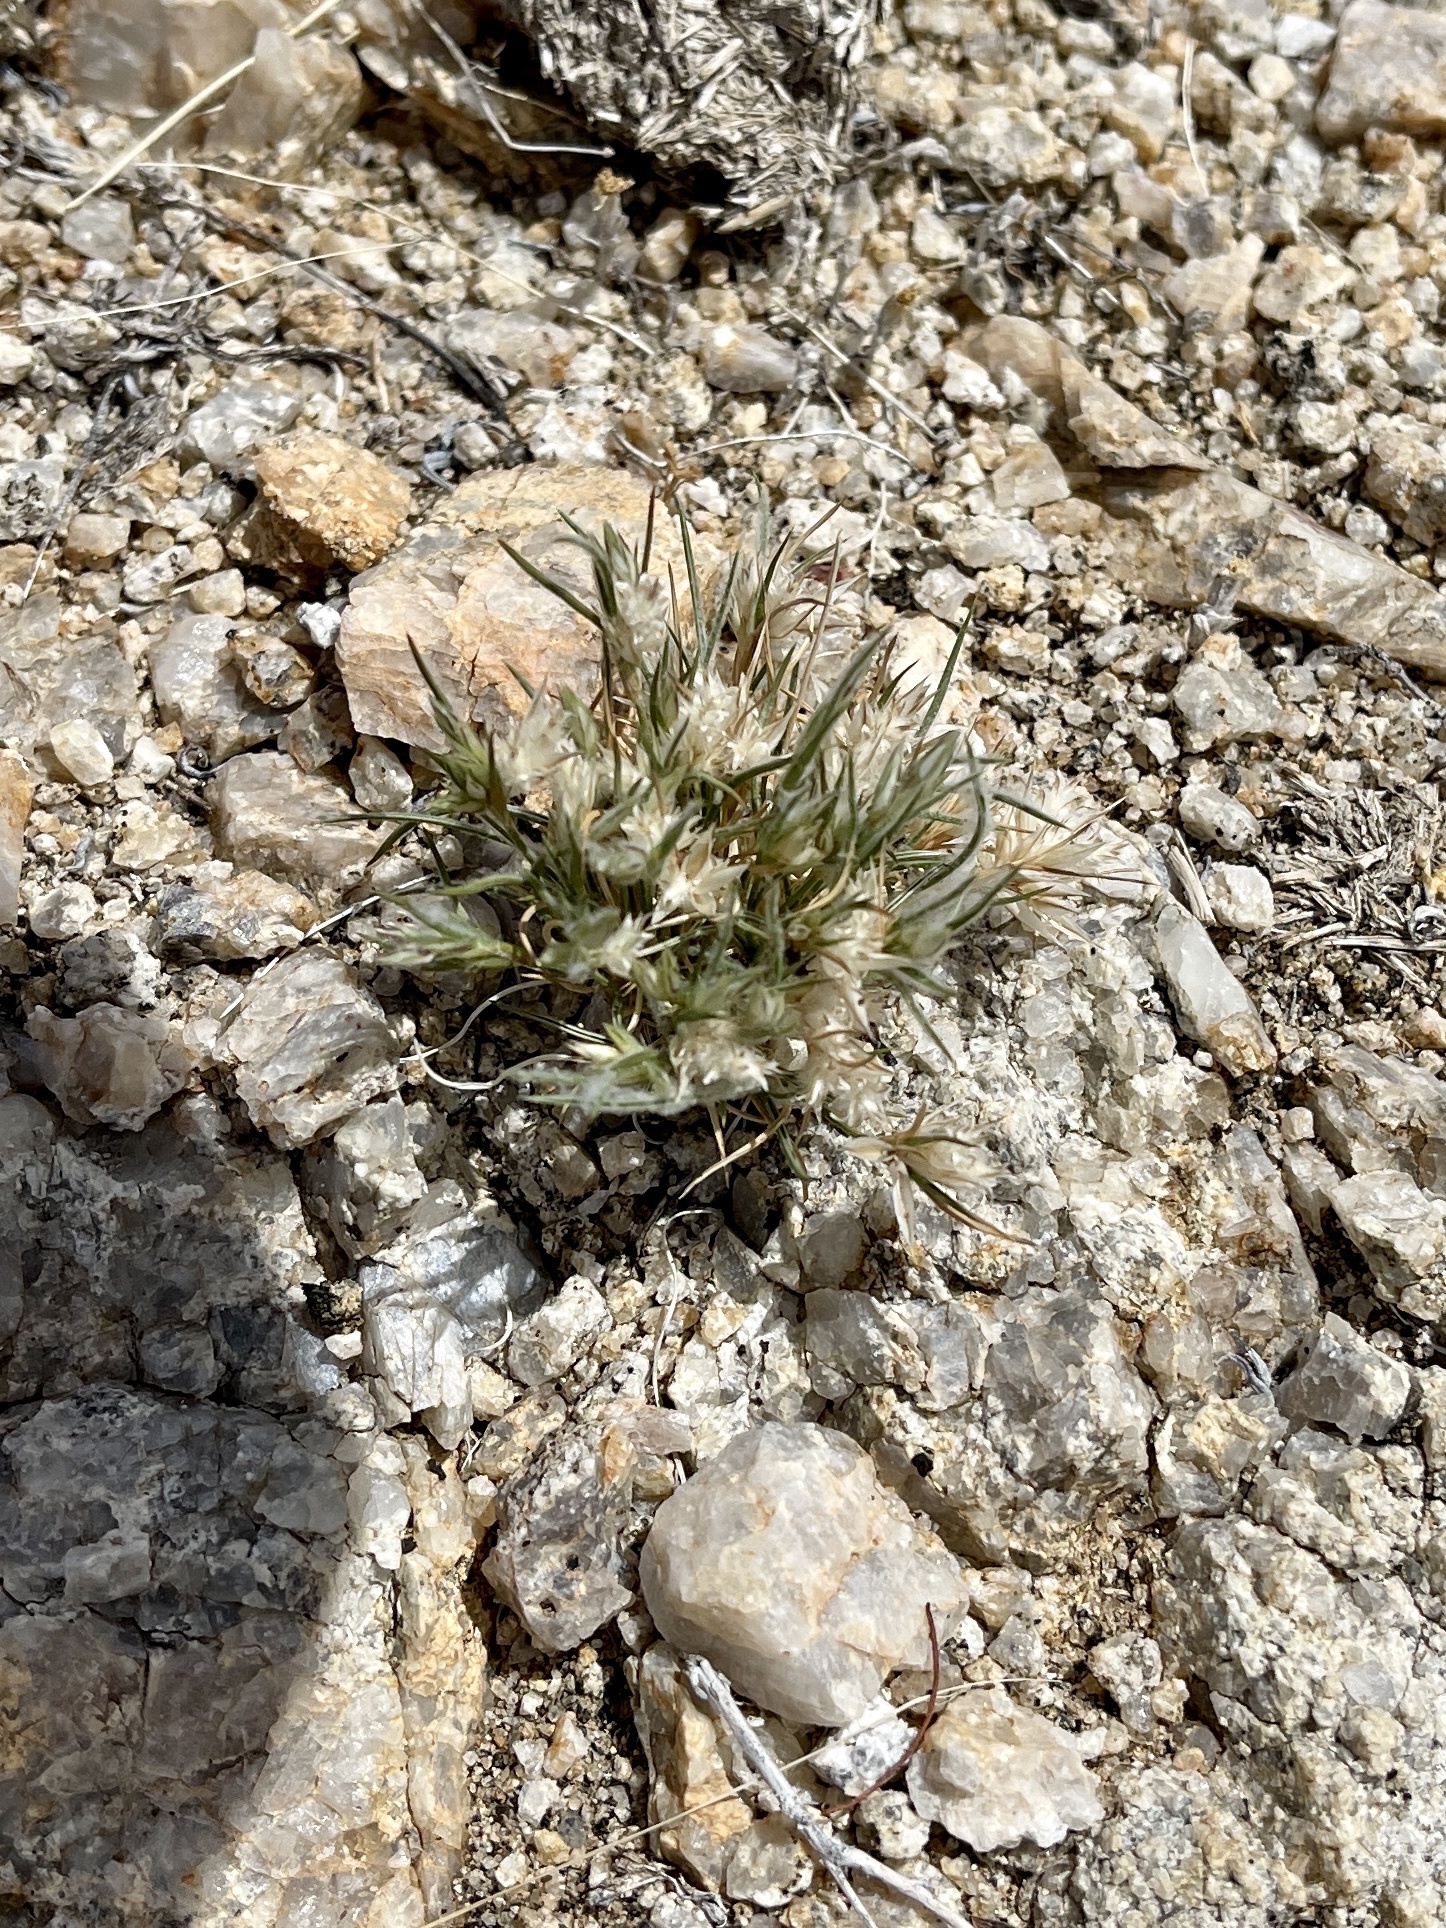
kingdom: Plantae
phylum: Tracheophyta
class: Liliopsida
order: Poales
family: Poaceae
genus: Dasyochloa
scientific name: Dasyochloa pulchella
